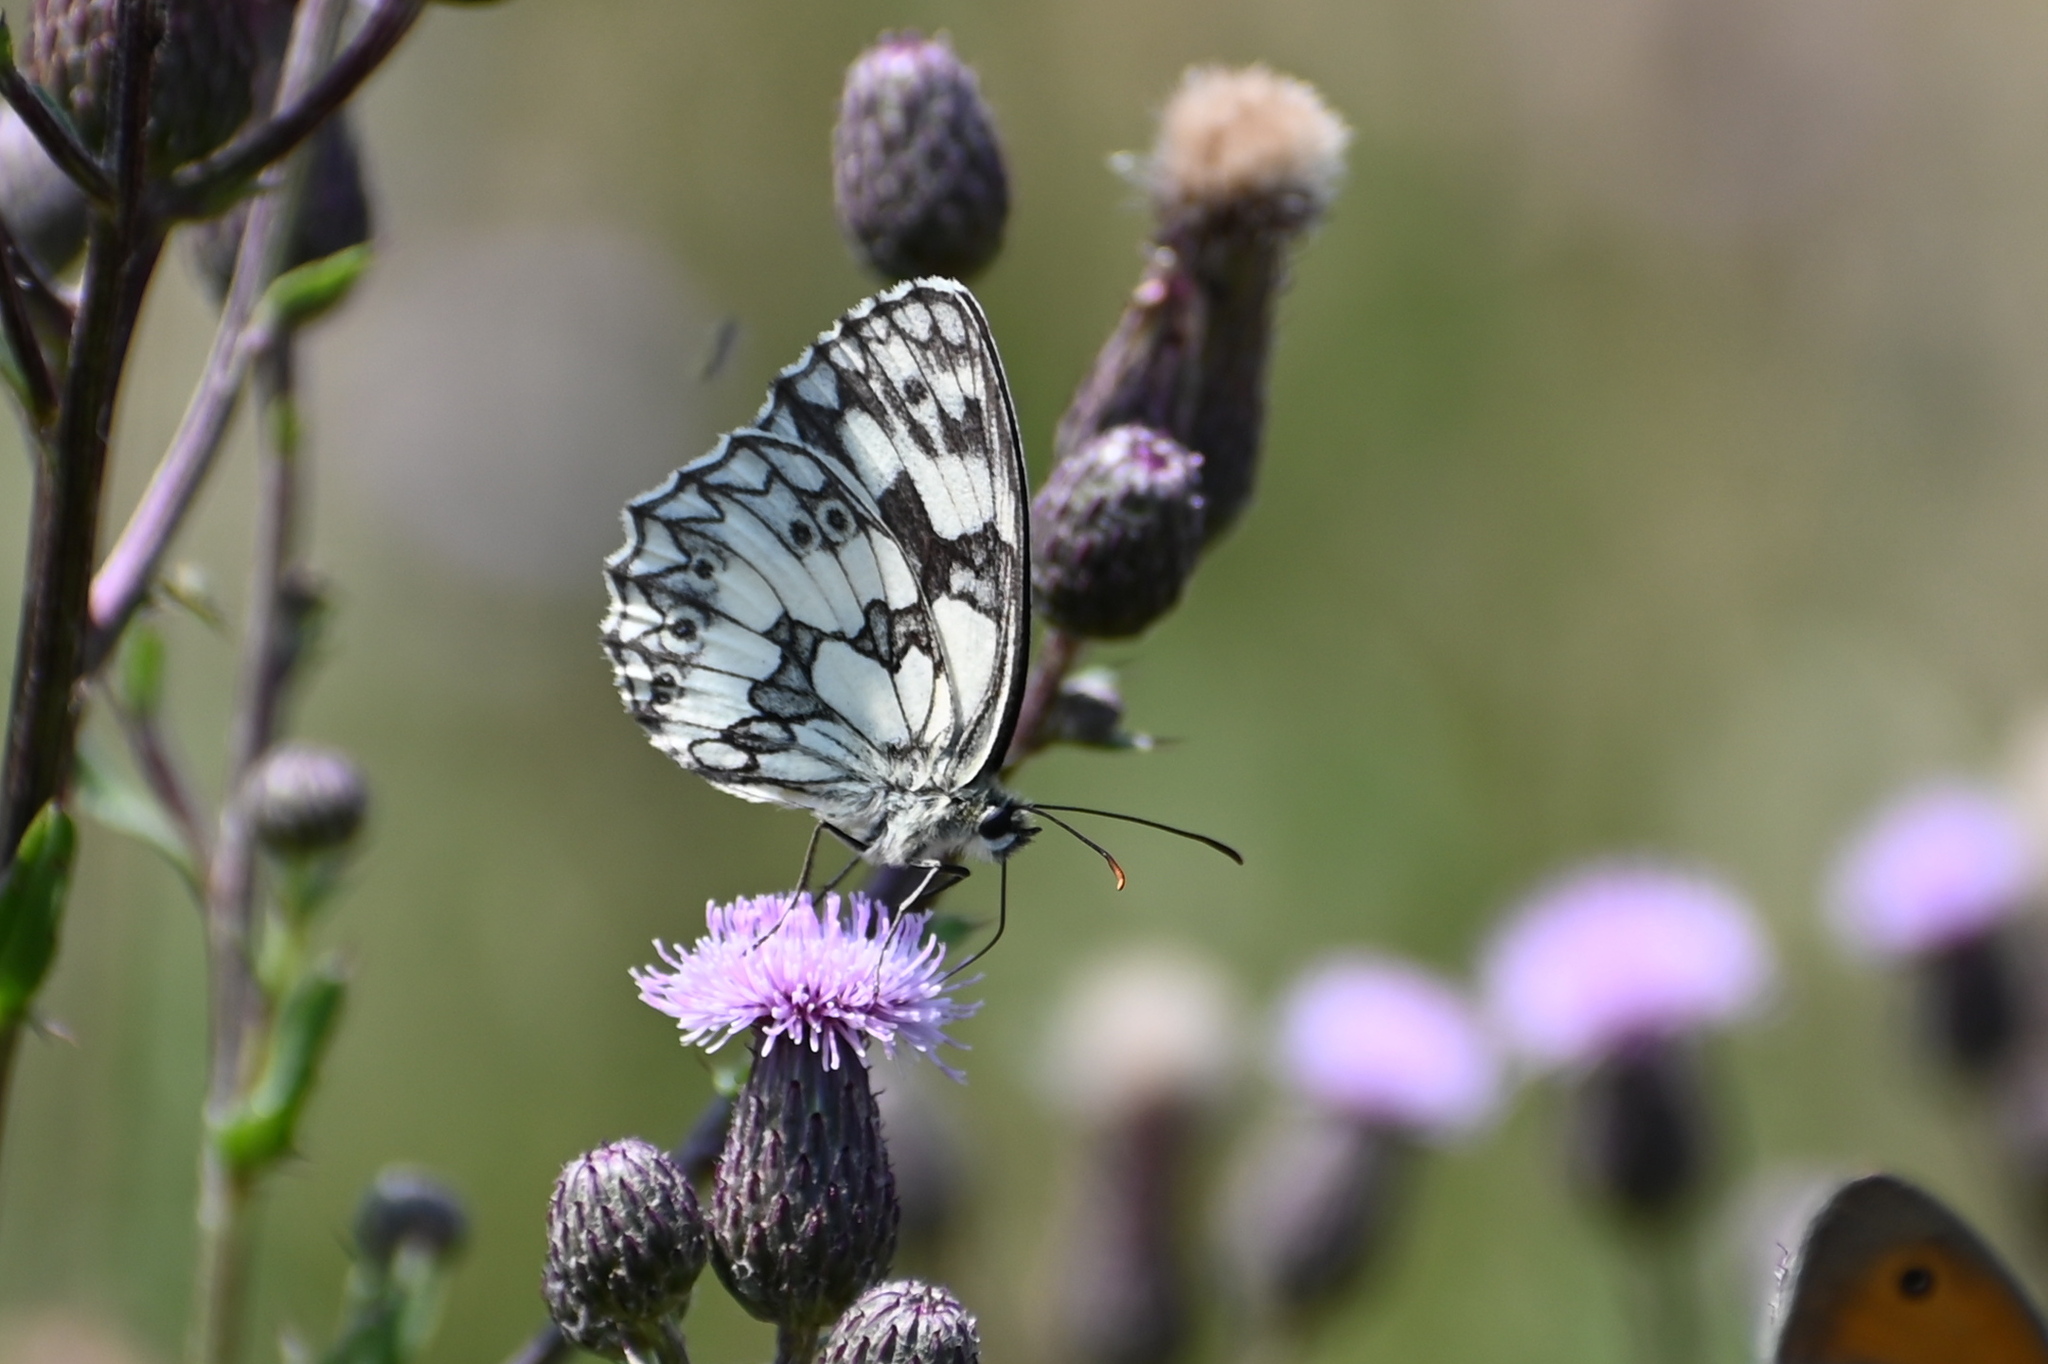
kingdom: Animalia
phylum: Arthropoda
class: Insecta
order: Lepidoptera
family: Nymphalidae
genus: Melanargia
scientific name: Melanargia galathea
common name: Marbled white
